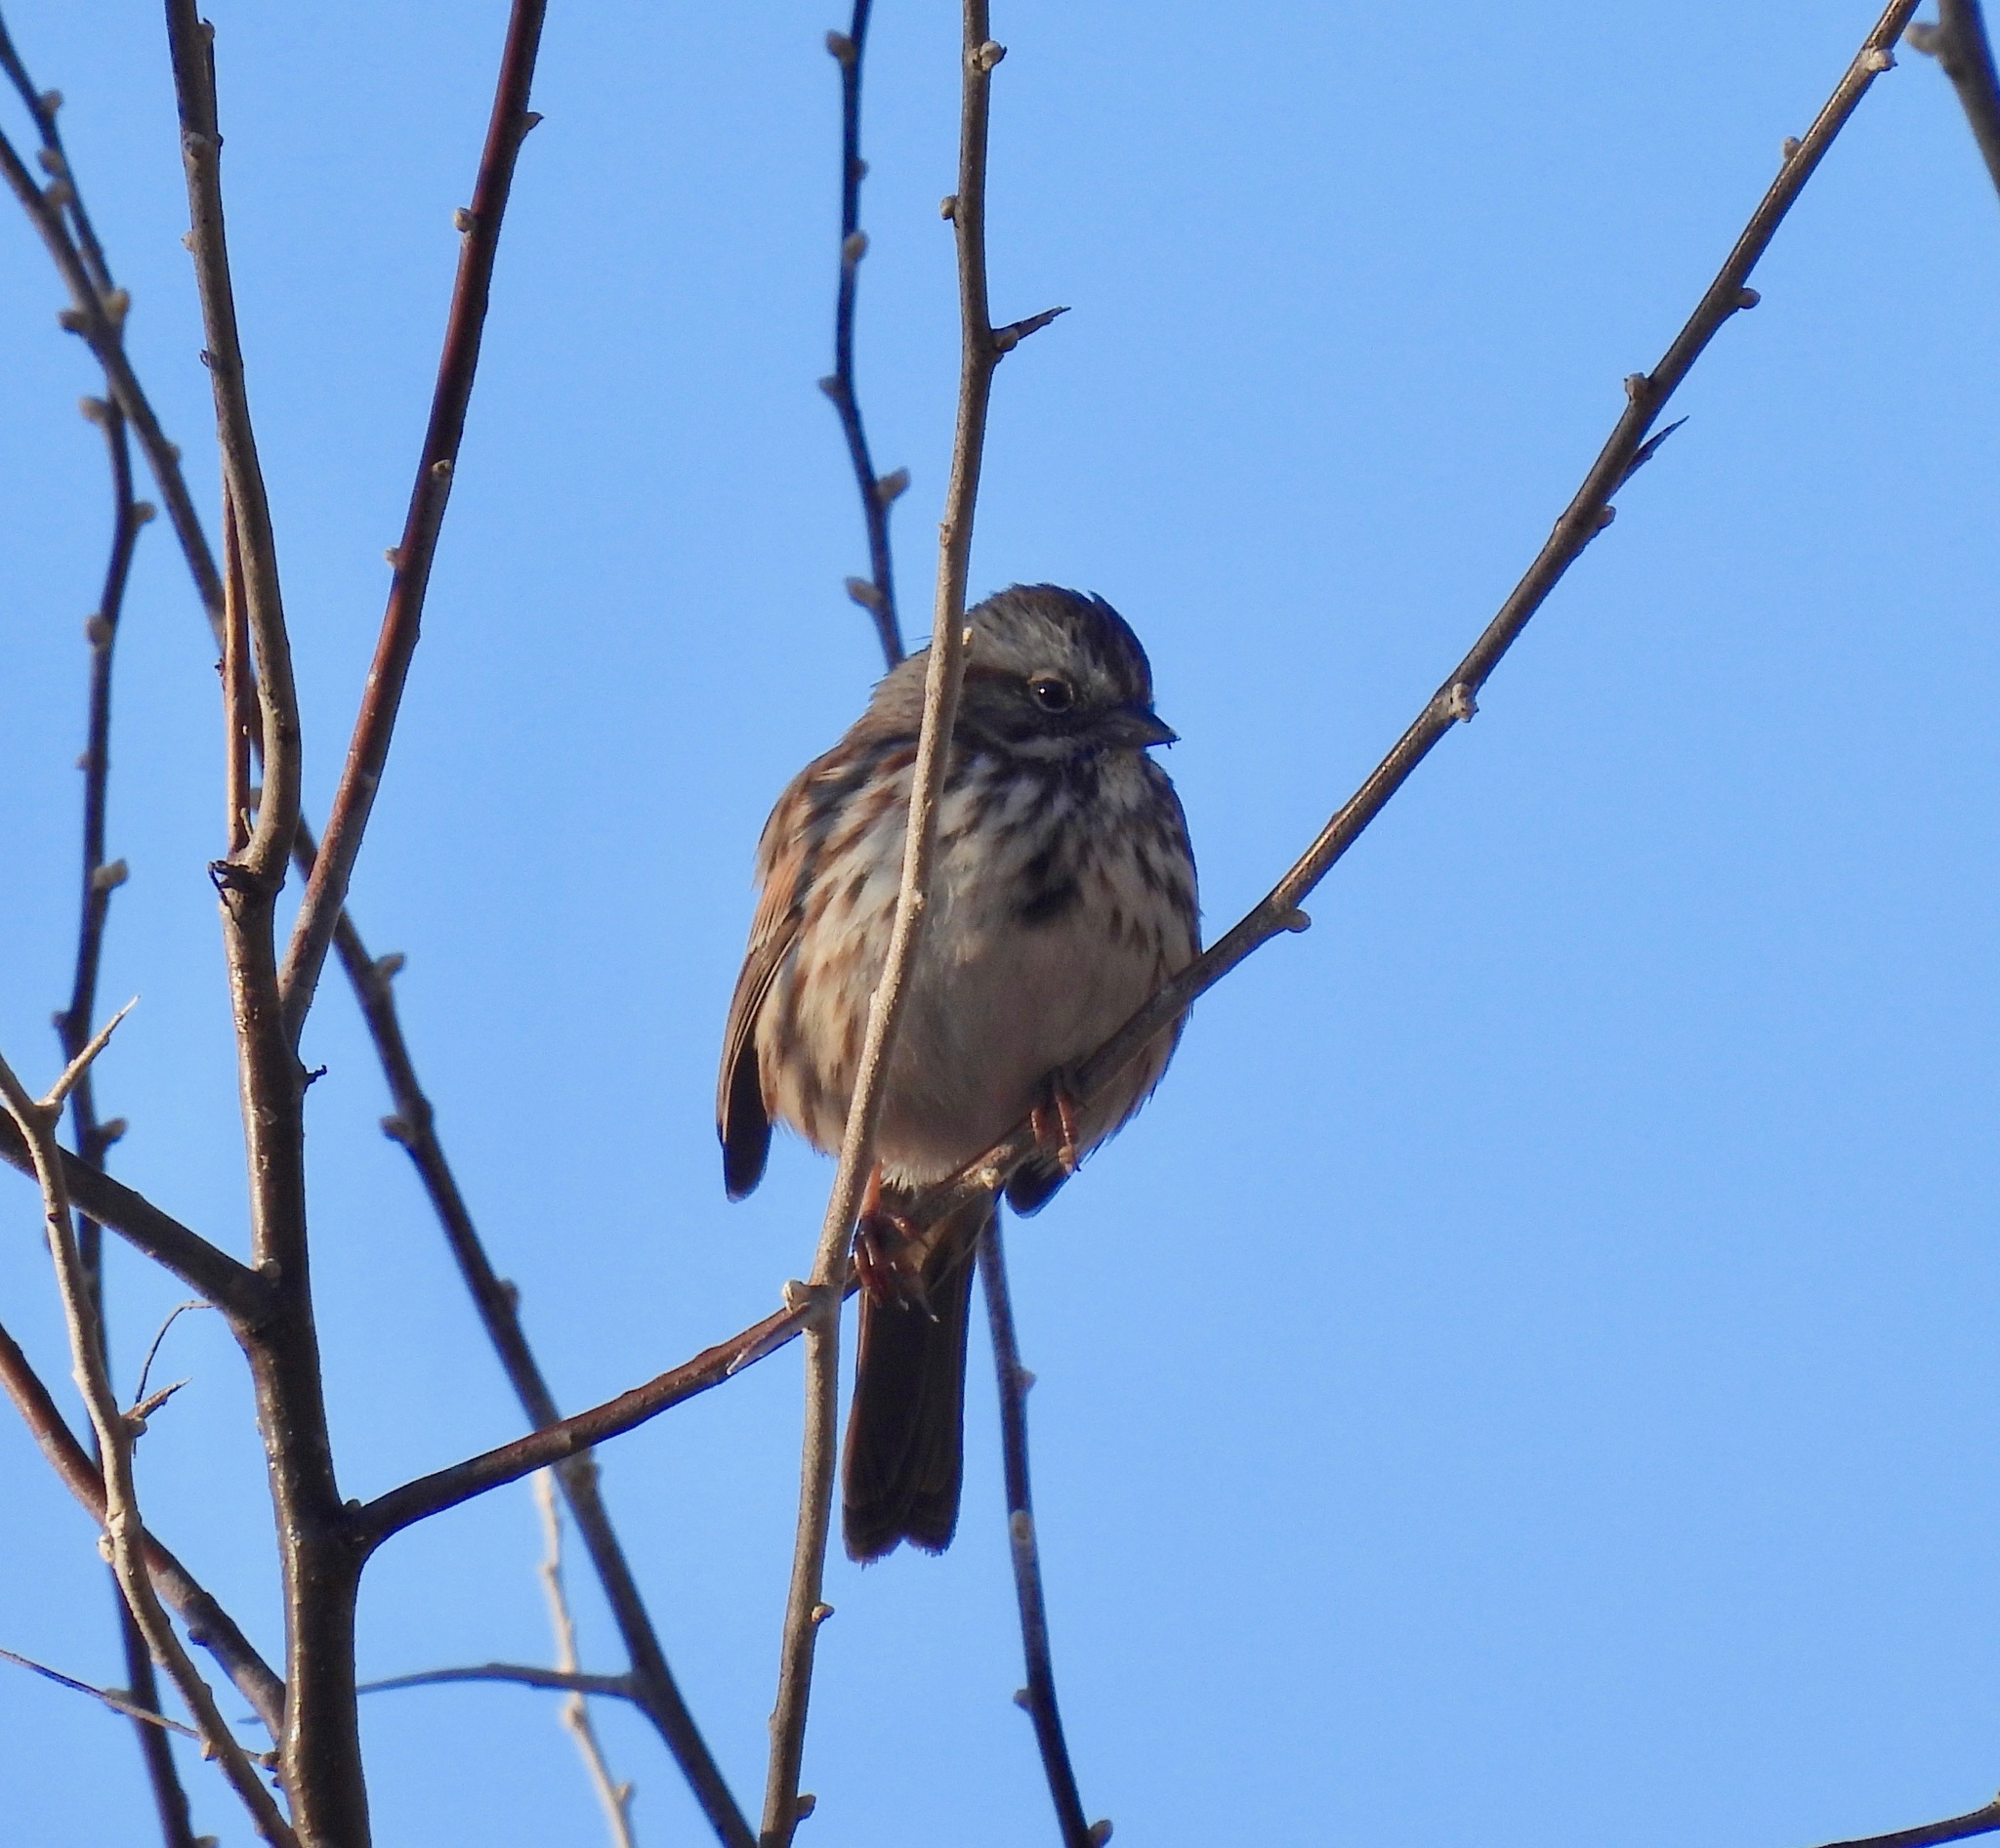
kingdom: Animalia
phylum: Chordata
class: Aves
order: Passeriformes
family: Passerellidae
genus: Melospiza
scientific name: Melospiza melodia
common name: Song sparrow
